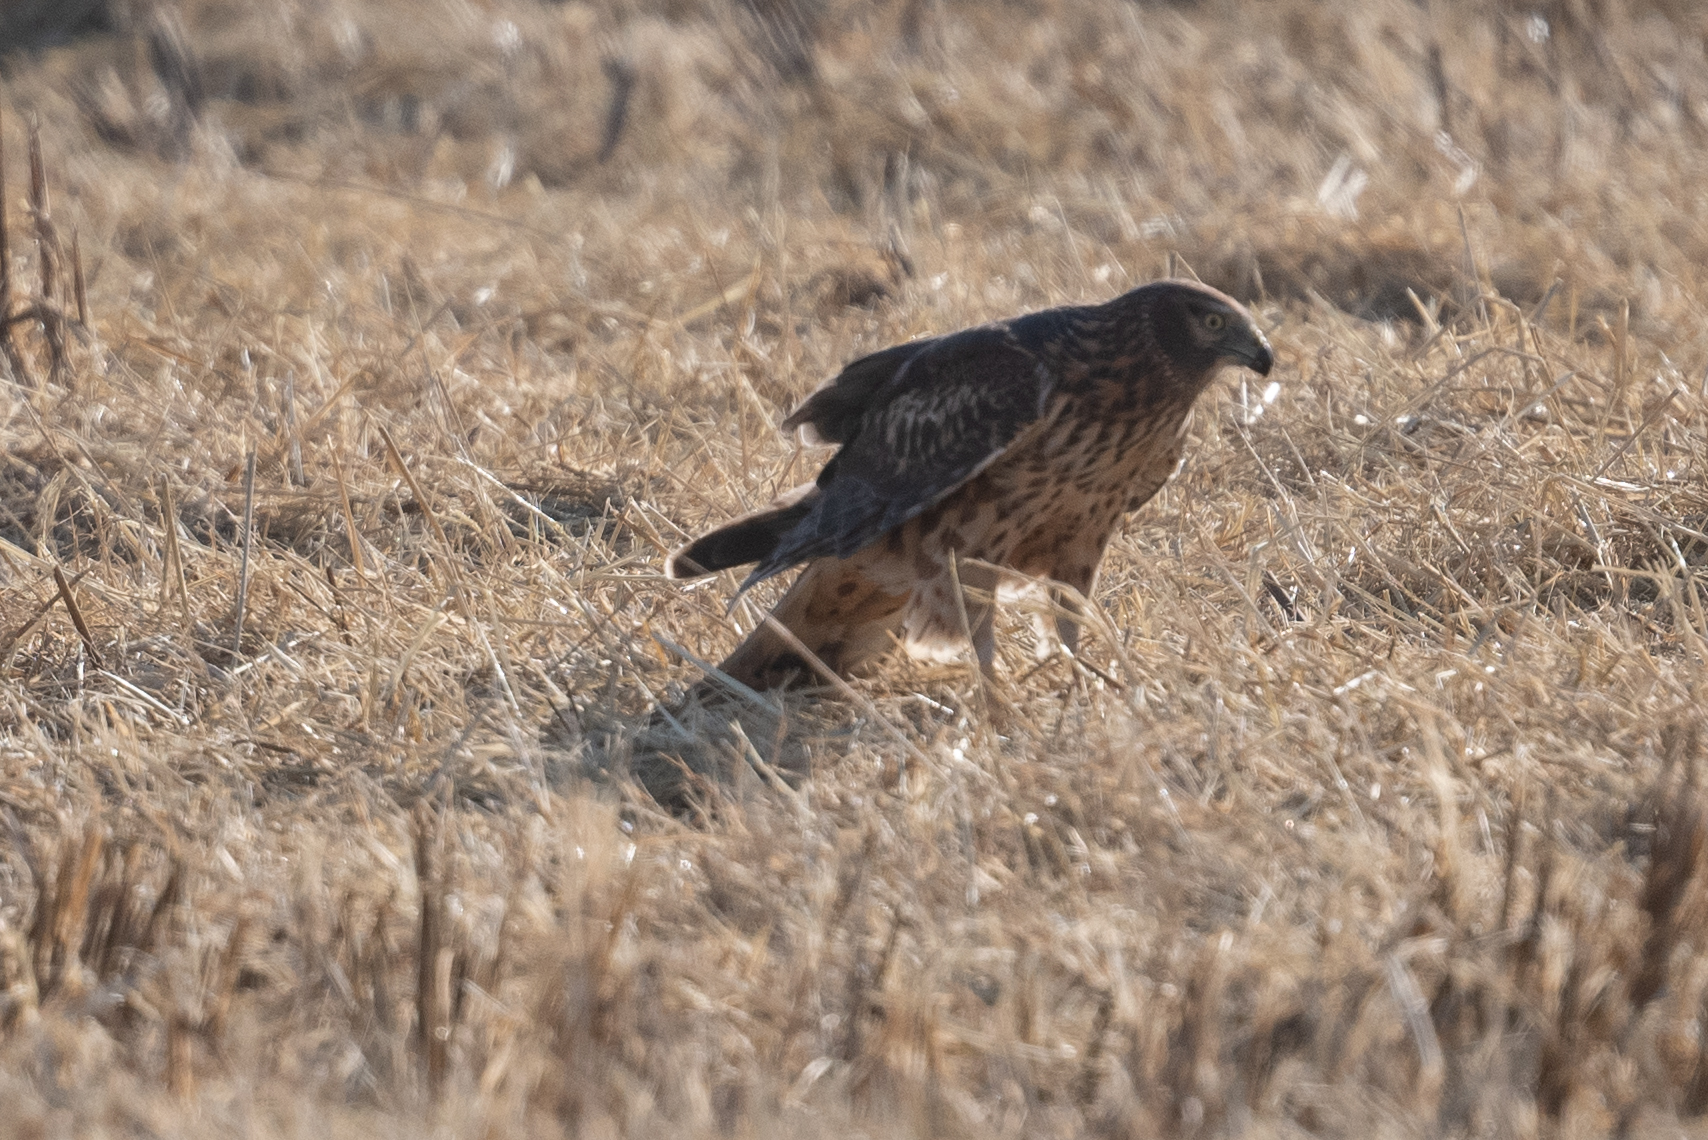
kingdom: Animalia
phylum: Chordata
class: Aves
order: Accipitriformes
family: Accipitridae
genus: Circus
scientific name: Circus cyaneus
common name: Hen harrier
